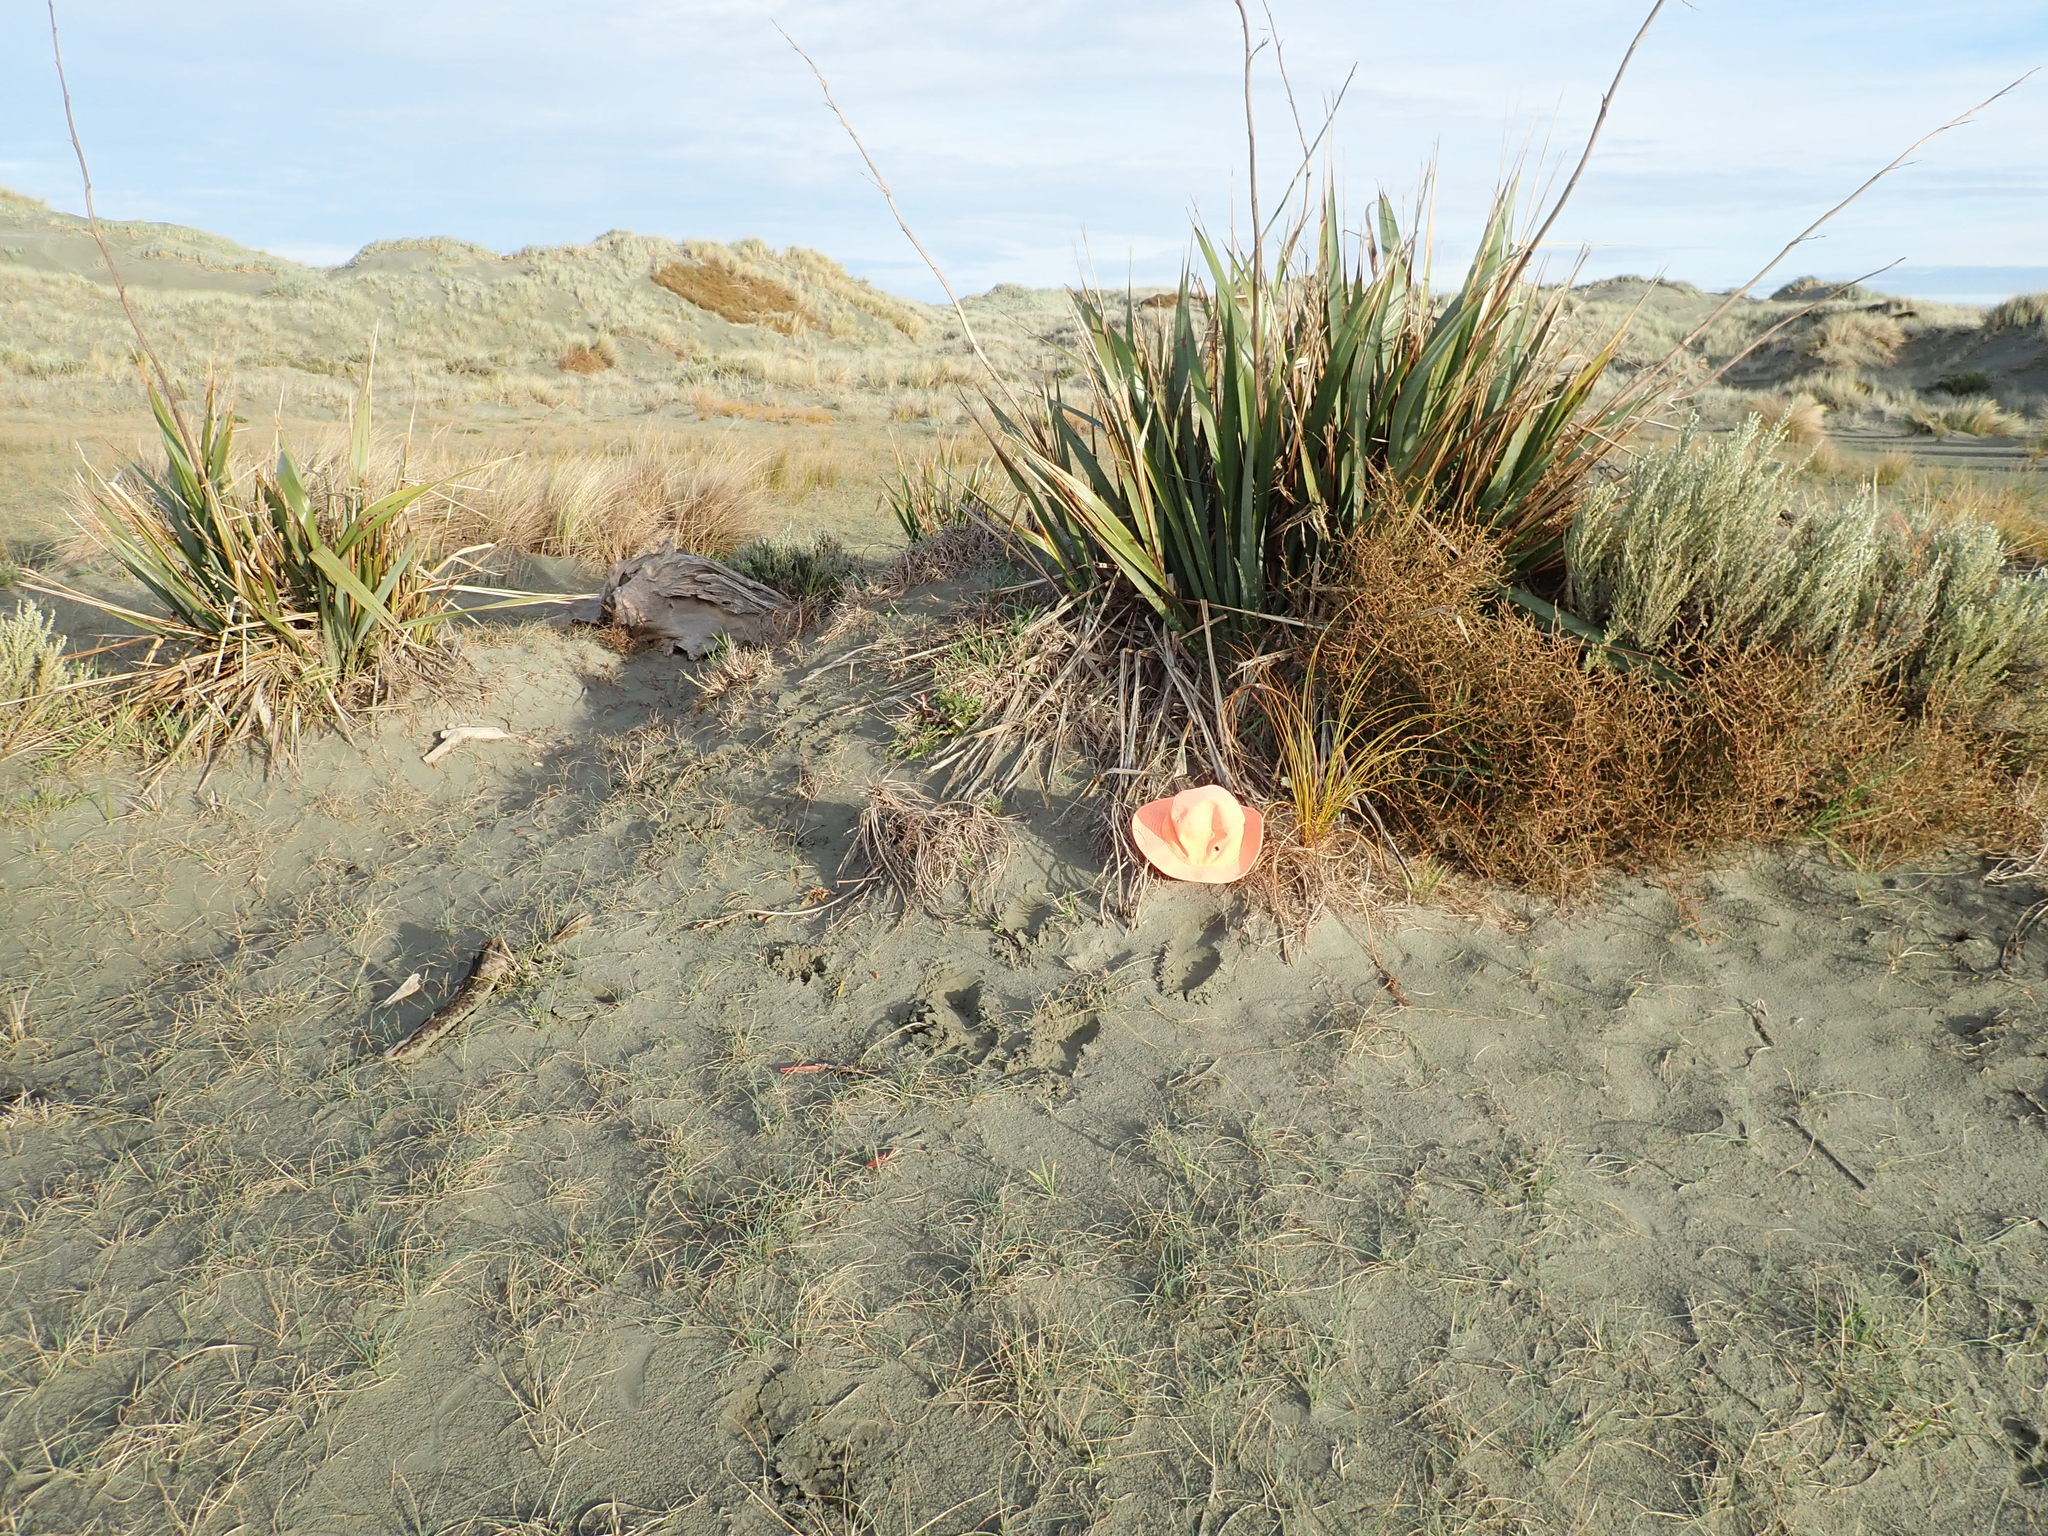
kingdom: Plantae
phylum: Tracheophyta
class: Magnoliopsida
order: Gentianales
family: Rubiaceae
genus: Coprosma
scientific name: Coprosma acerosa
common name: Sand coprosma
